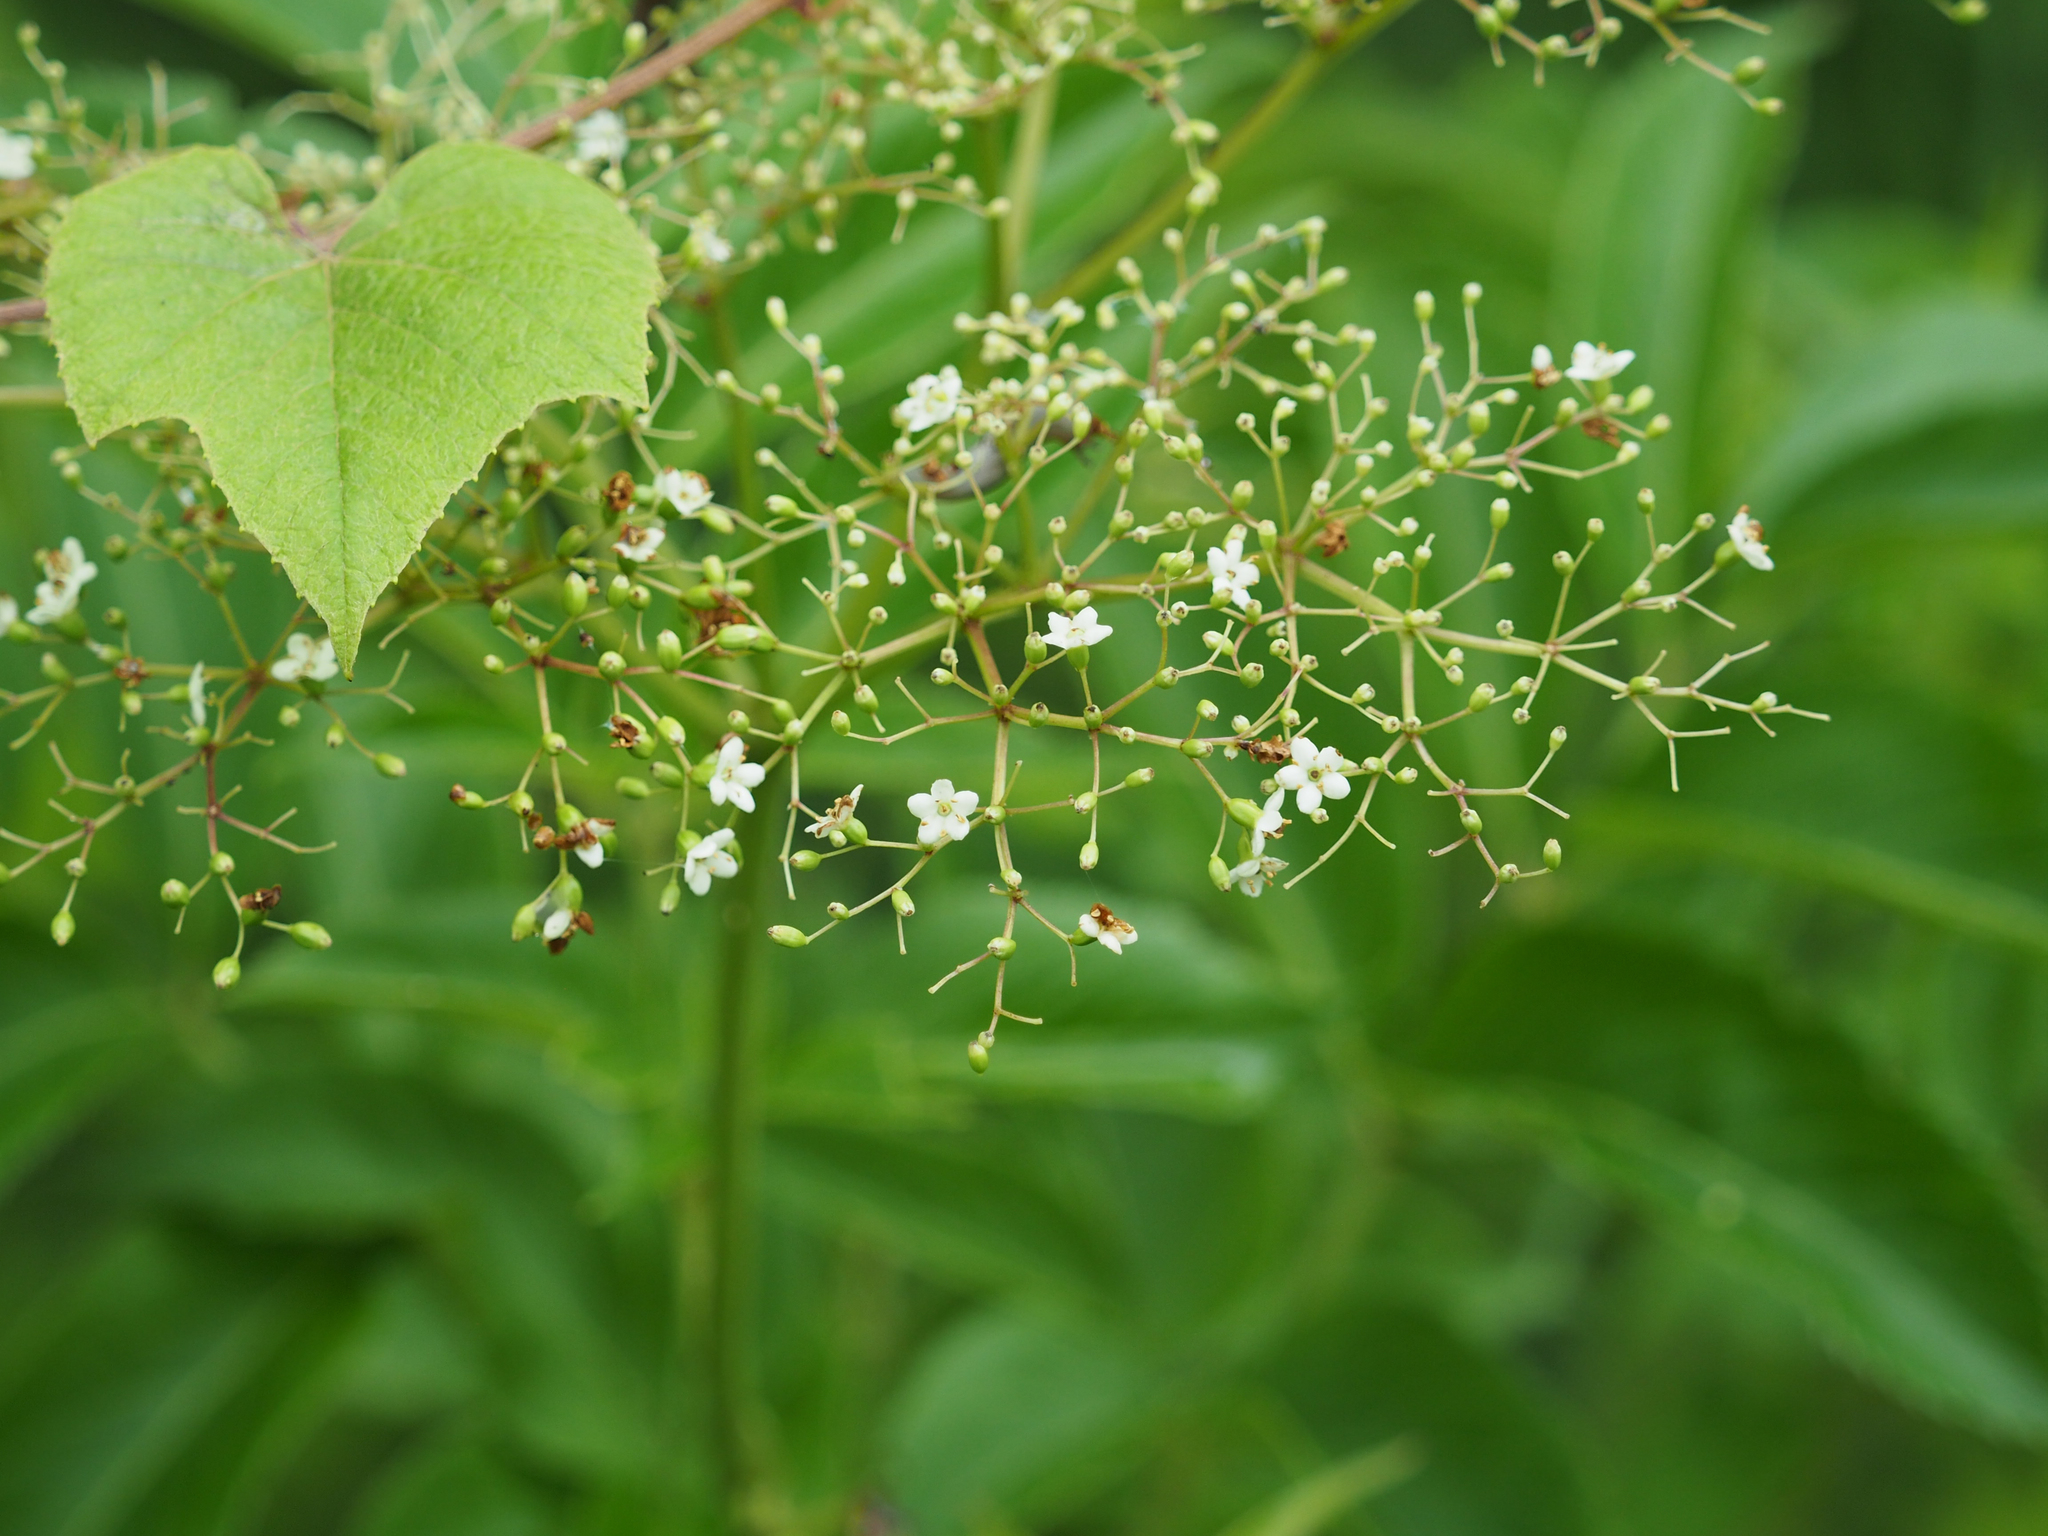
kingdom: Plantae
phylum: Tracheophyta
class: Magnoliopsida
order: Dipsacales
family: Viburnaceae
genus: Sambucus
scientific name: Sambucus canadensis
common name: American elder
